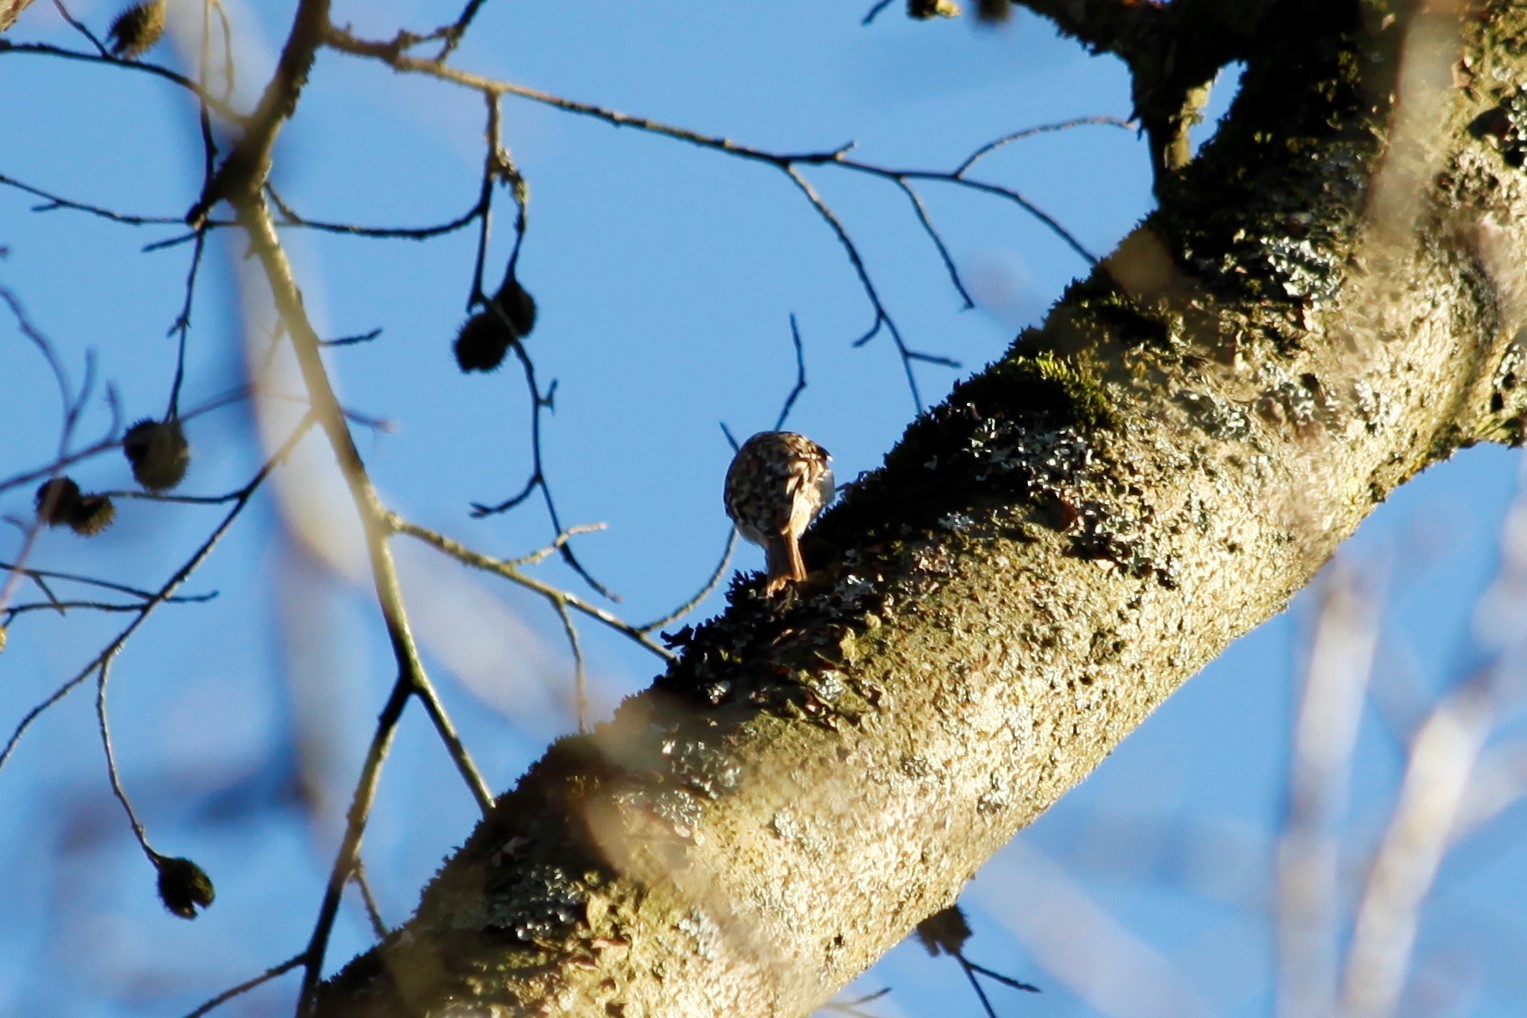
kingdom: Animalia
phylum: Chordata
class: Aves
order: Passeriformes
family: Certhiidae
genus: Certhia
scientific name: Certhia brachydactyla
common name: Short-toed treecreeper
